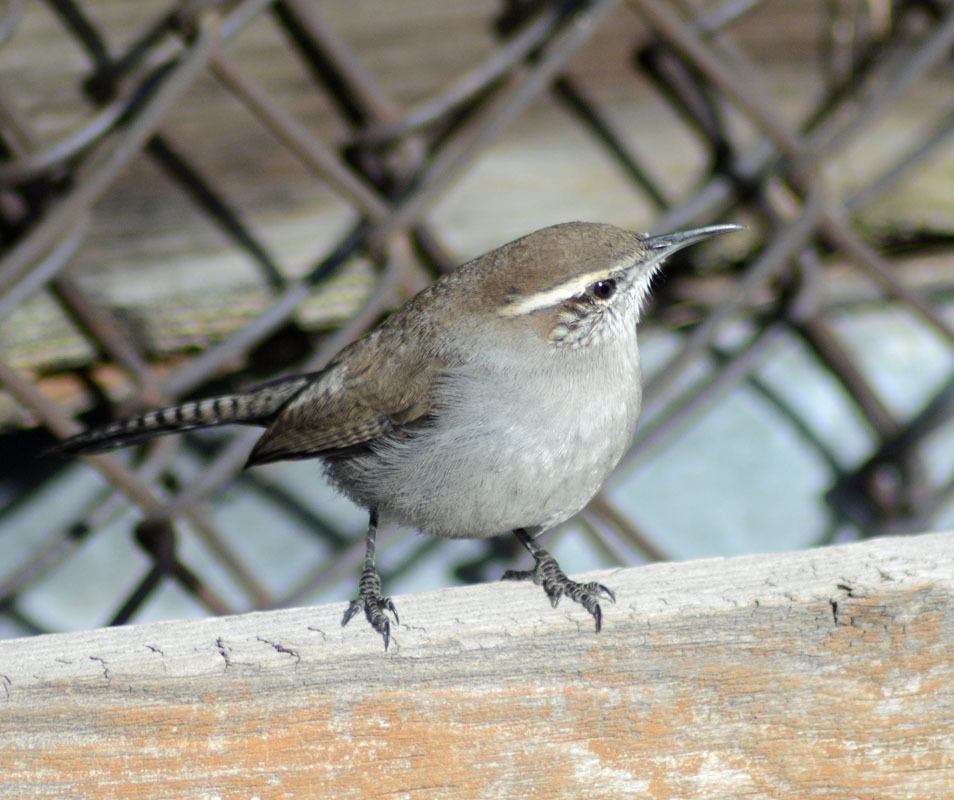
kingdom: Animalia
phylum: Chordata
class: Aves
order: Passeriformes
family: Troglodytidae
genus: Thryomanes
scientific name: Thryomanes bewickii
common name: Bewick's wren
